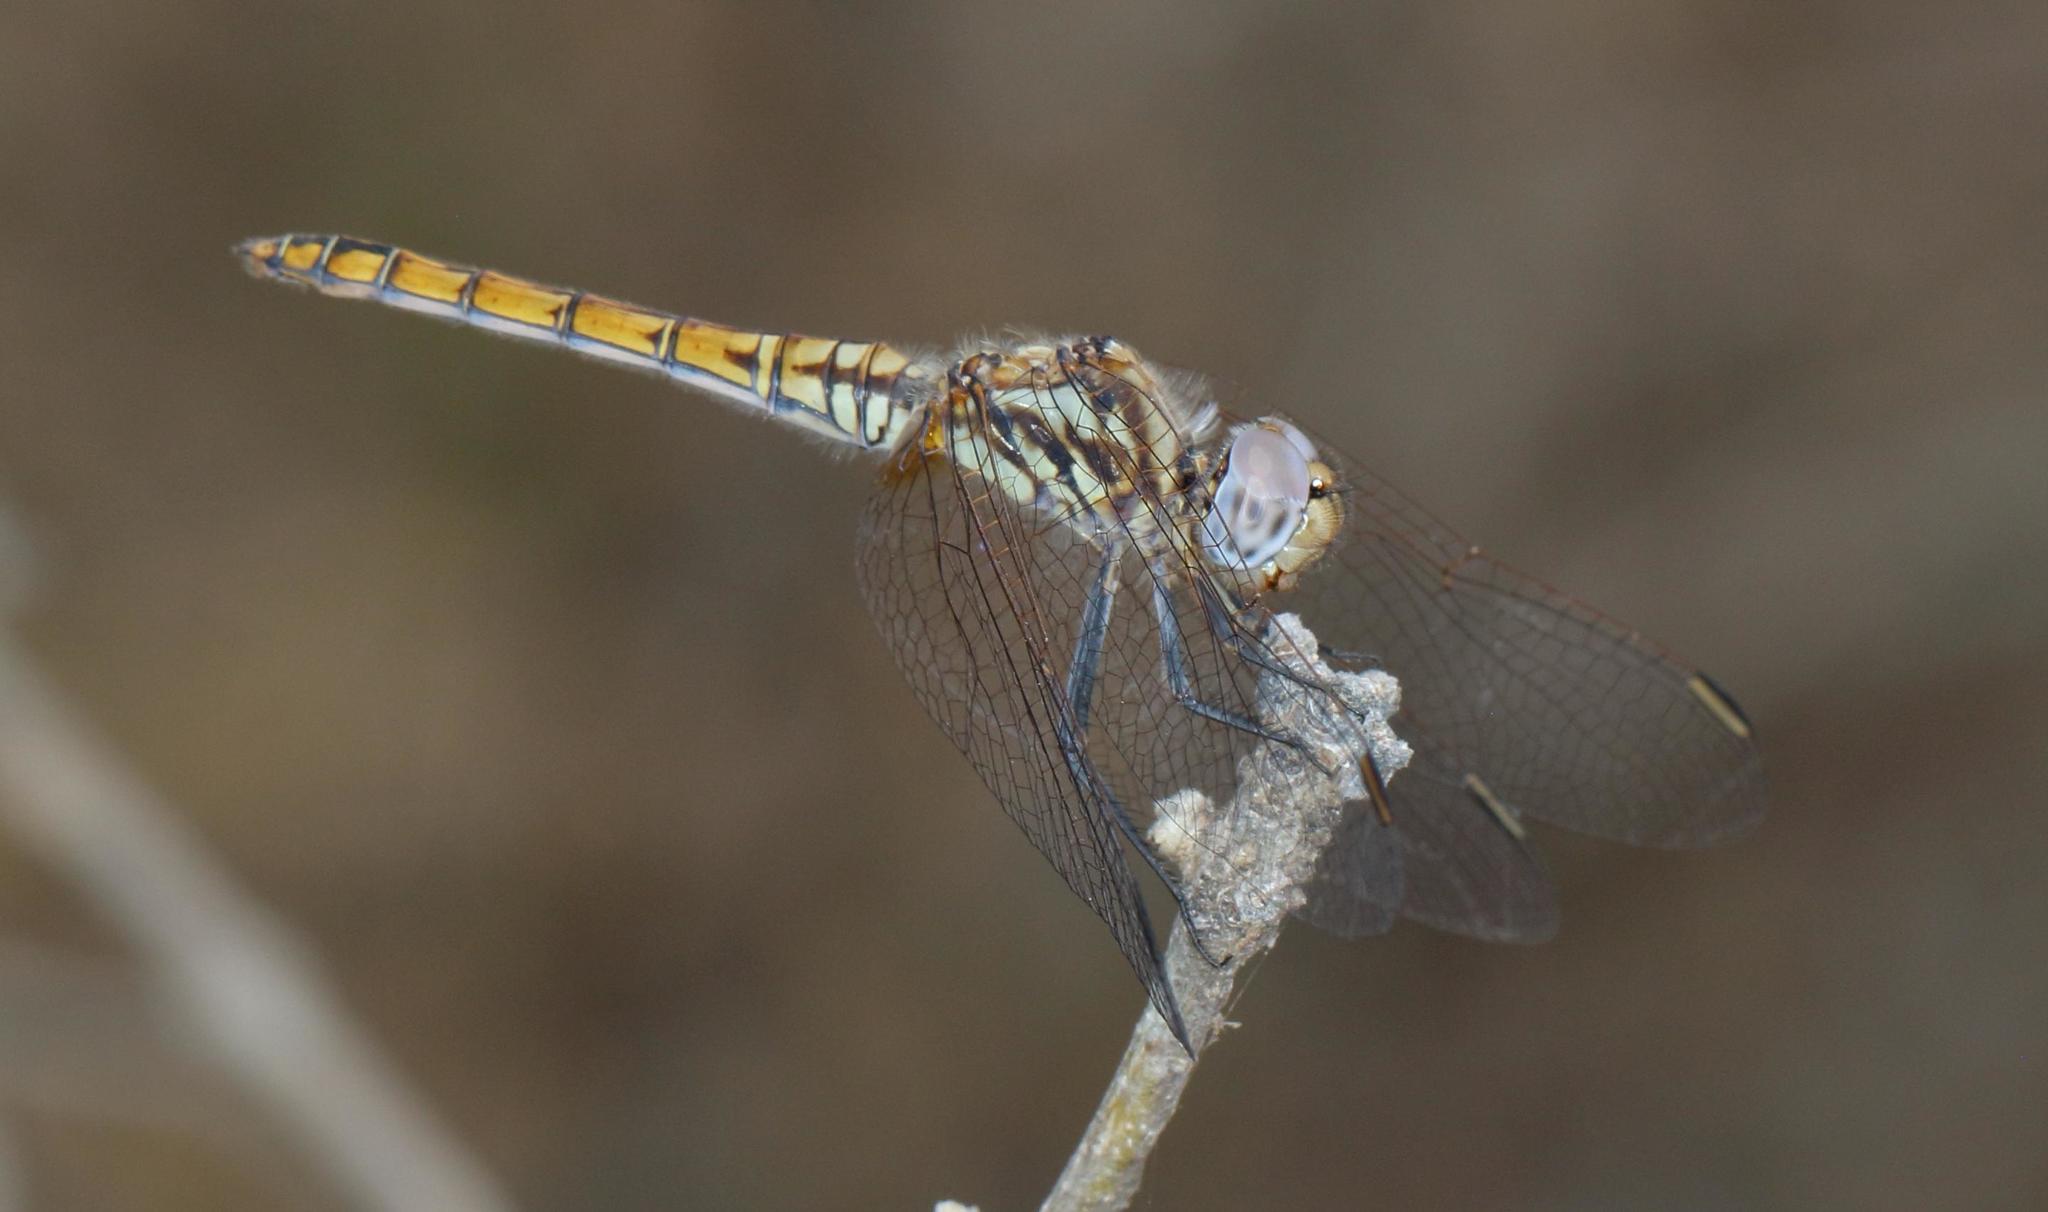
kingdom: Animalia
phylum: Arthropoda
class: Insecta
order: Odonata
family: Libellulidae
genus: Trithemis
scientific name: Trithemis annulata
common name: Violet dropwing
